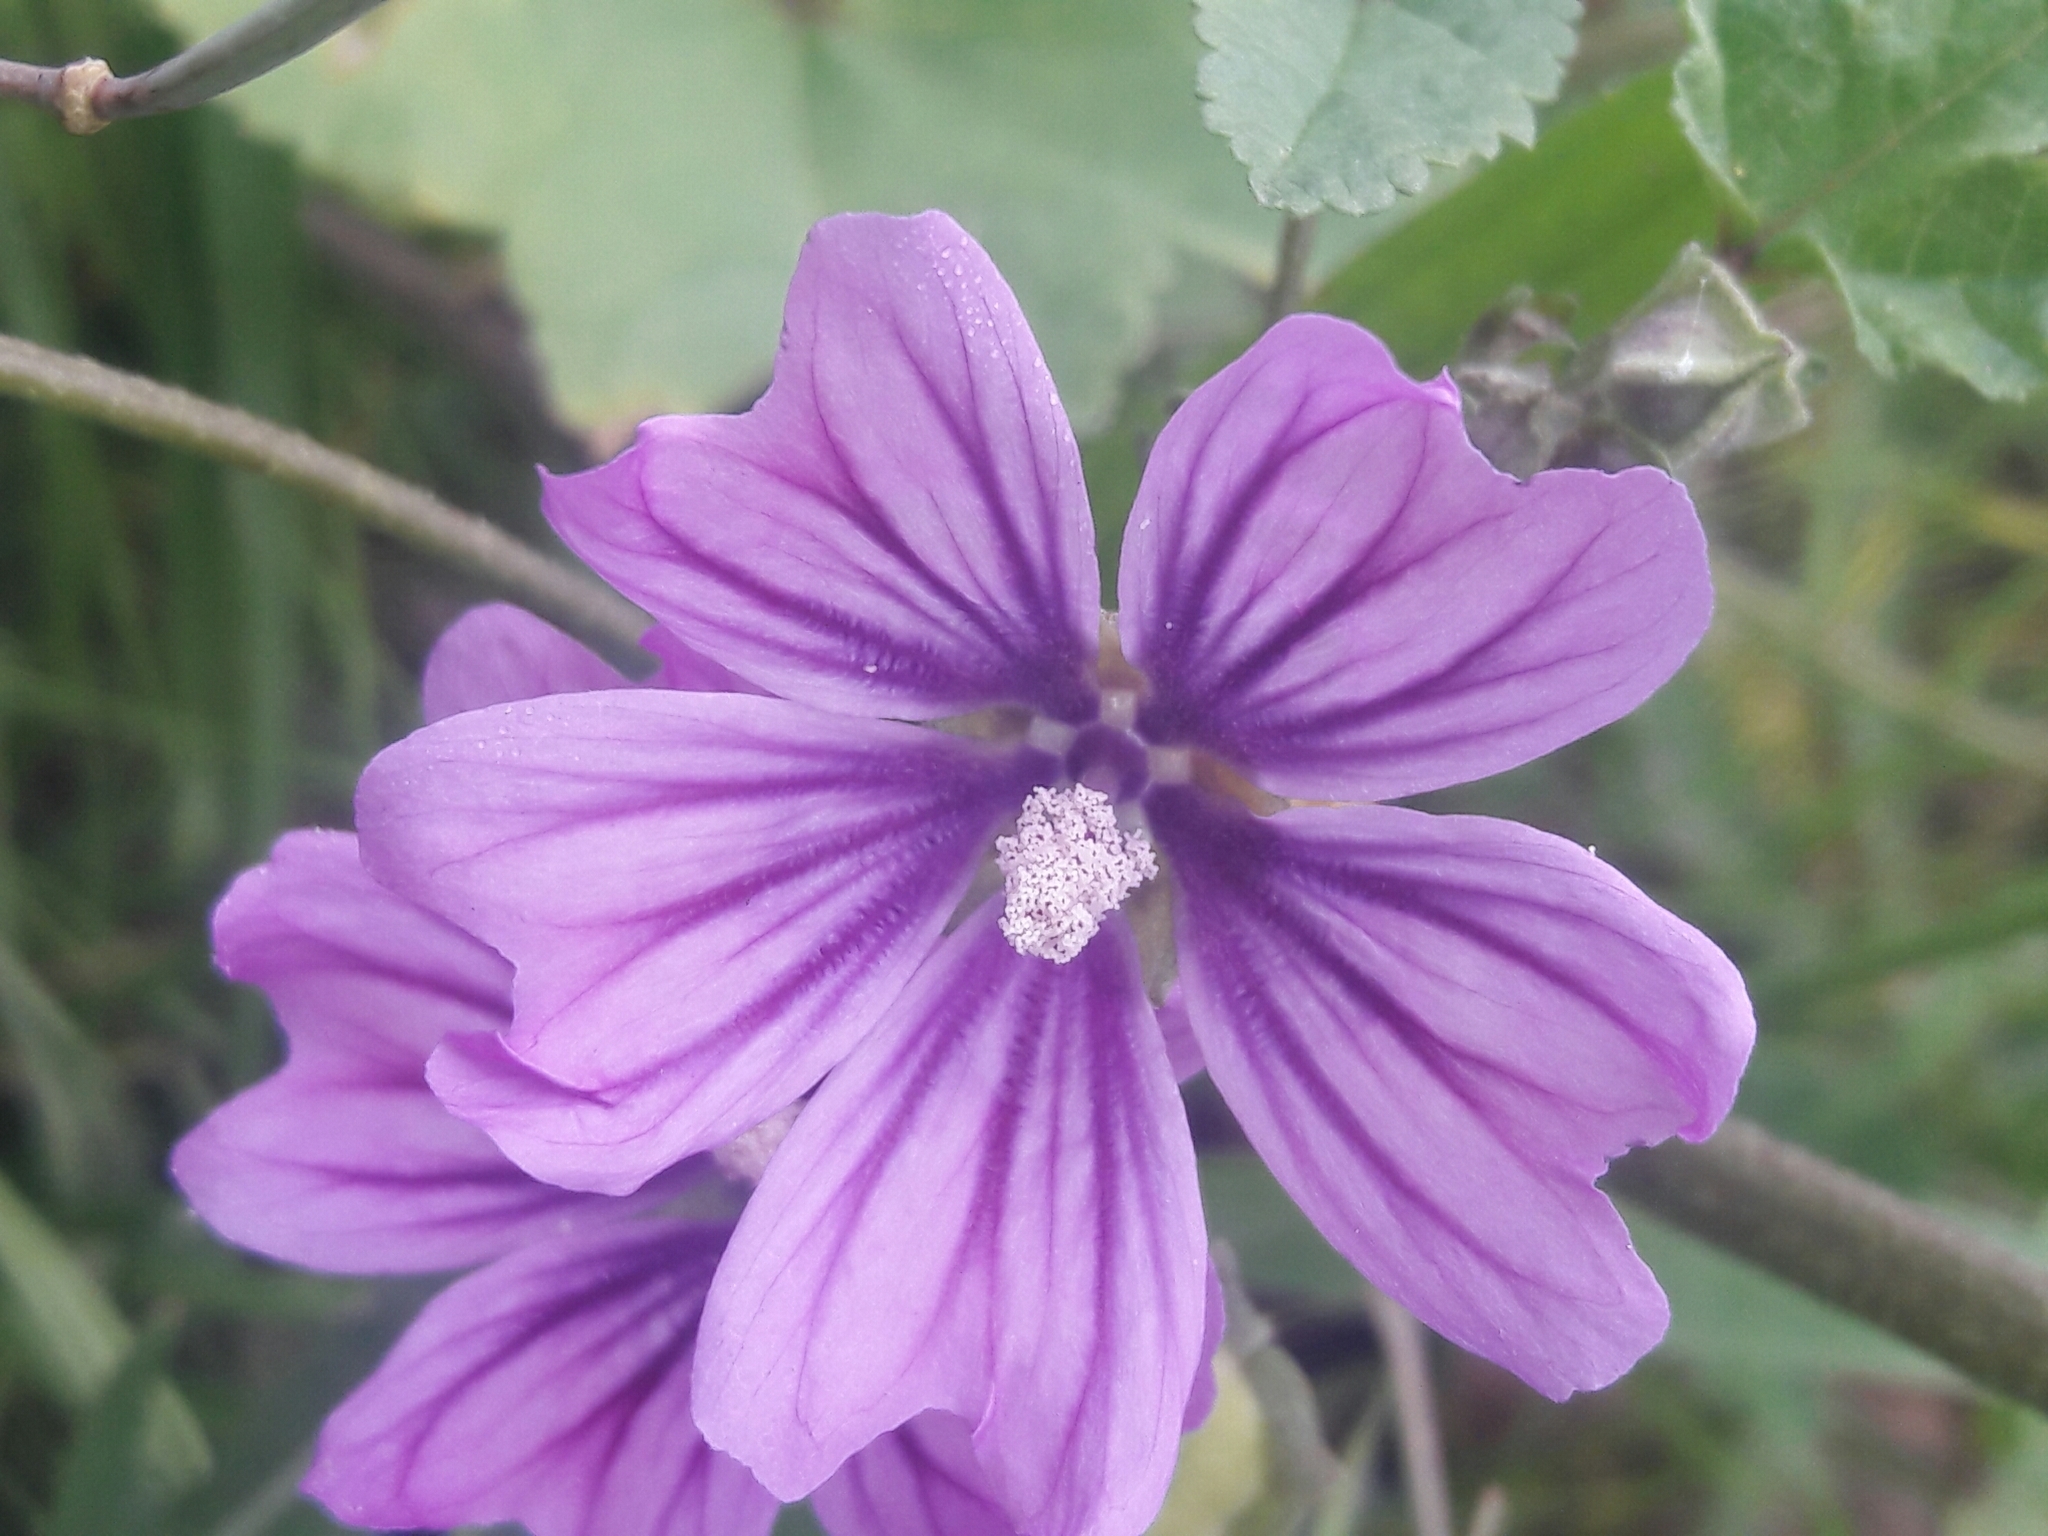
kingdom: Plantae
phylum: Tracheophyta
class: Magnoliopsida
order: Malvales
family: Malvaceae
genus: Malva
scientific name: Malva sylvestris
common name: Common mallow
